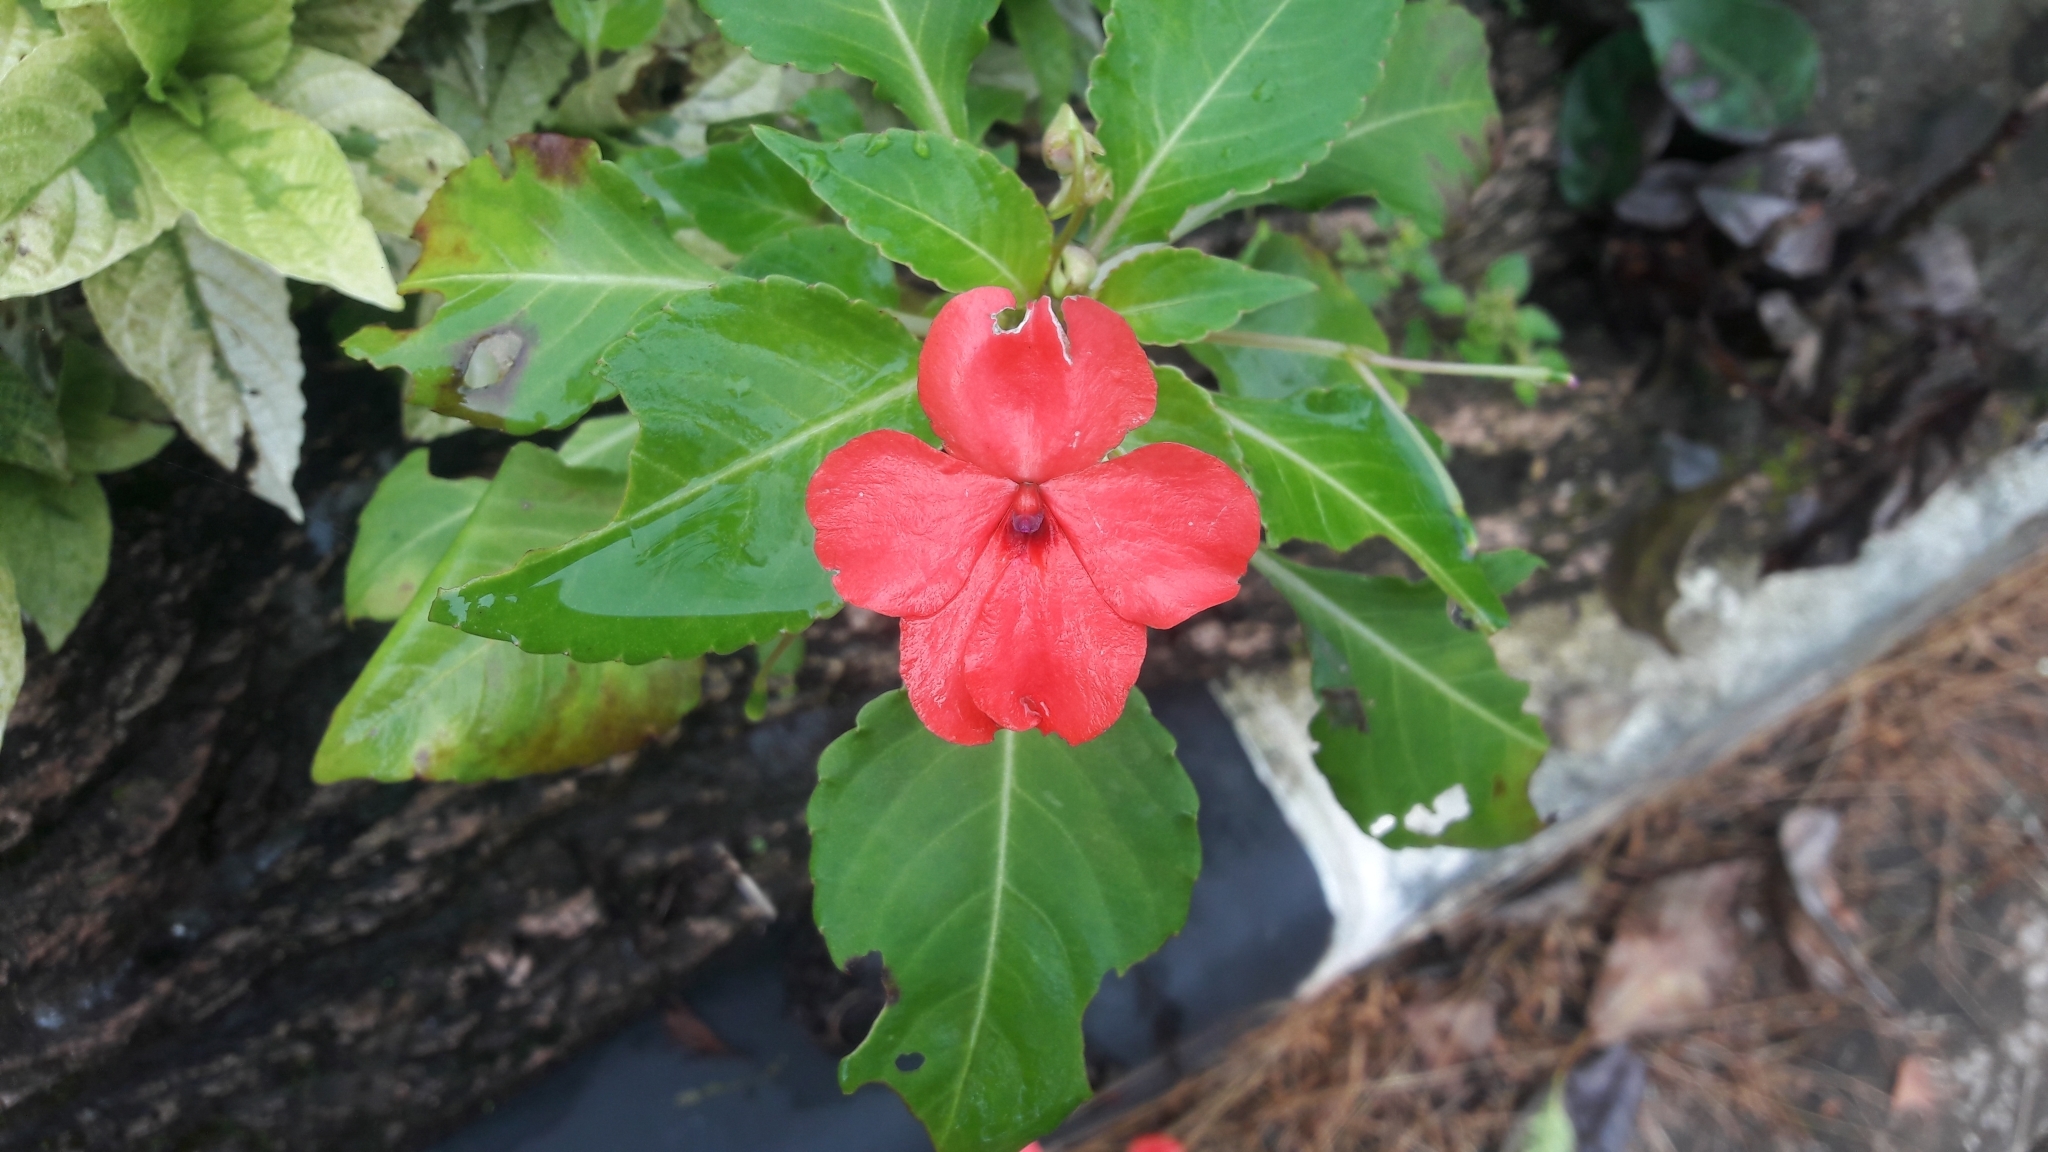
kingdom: Plantae
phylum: Tracheophyta
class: Magnoliopsida
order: Ericales
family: Balsaminaceae
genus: Impatiens
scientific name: Impatiens walleriana
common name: Buzzy lizzy
